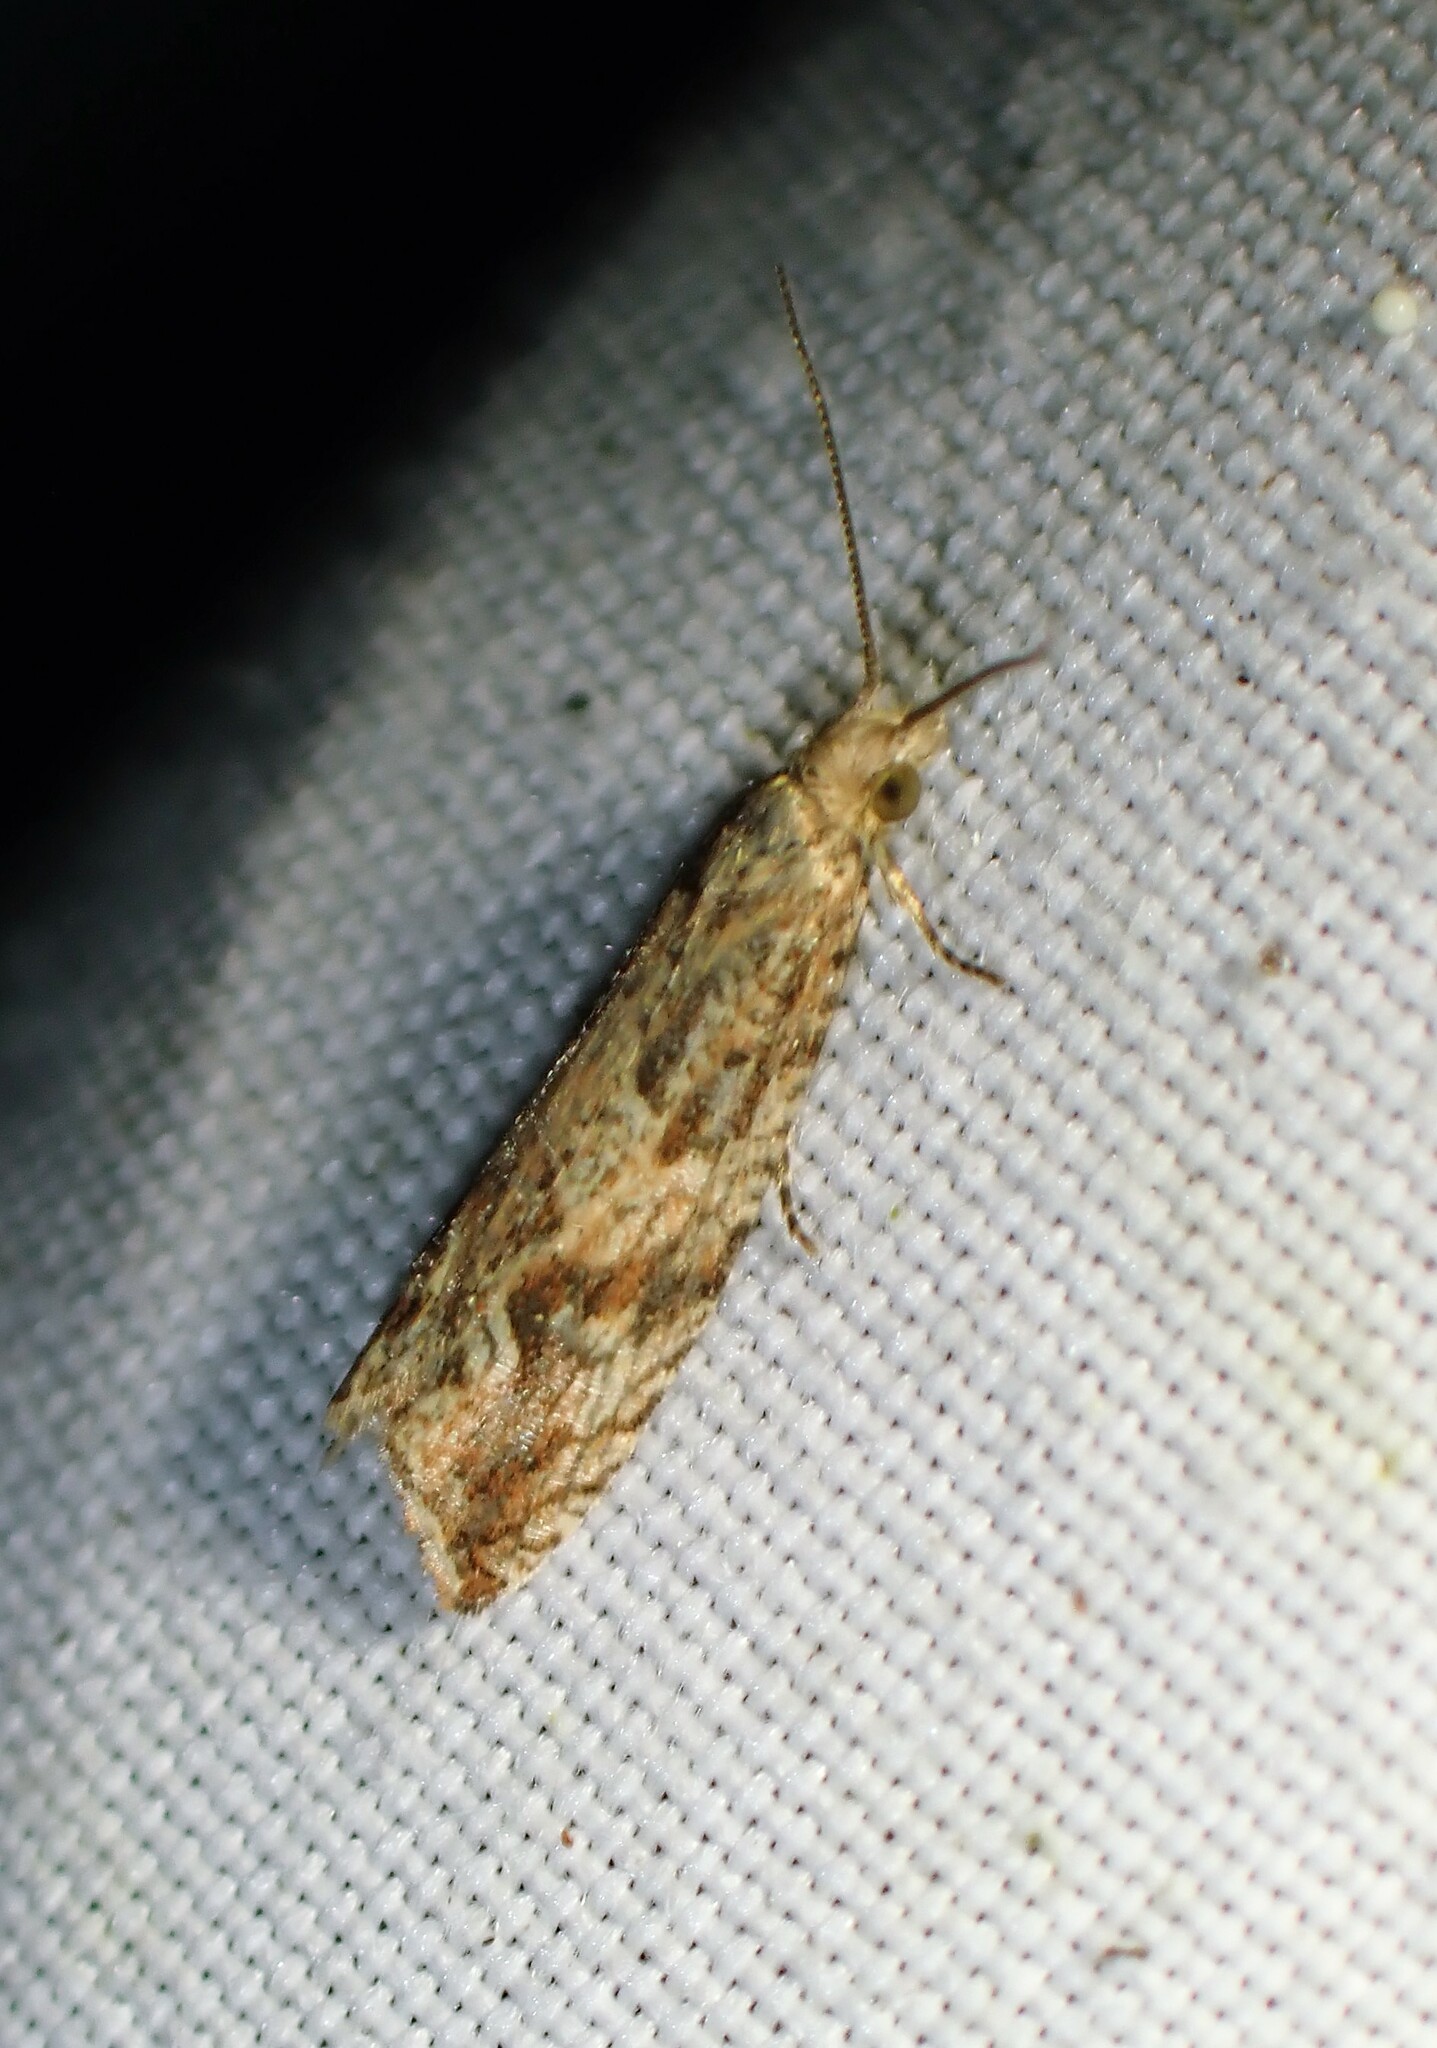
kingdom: Animalia
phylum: Arthropoda
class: Insecta
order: Lepidoptera
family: Tortricidae
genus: Bactra
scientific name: Bactra furfurana
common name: Mottled marble
